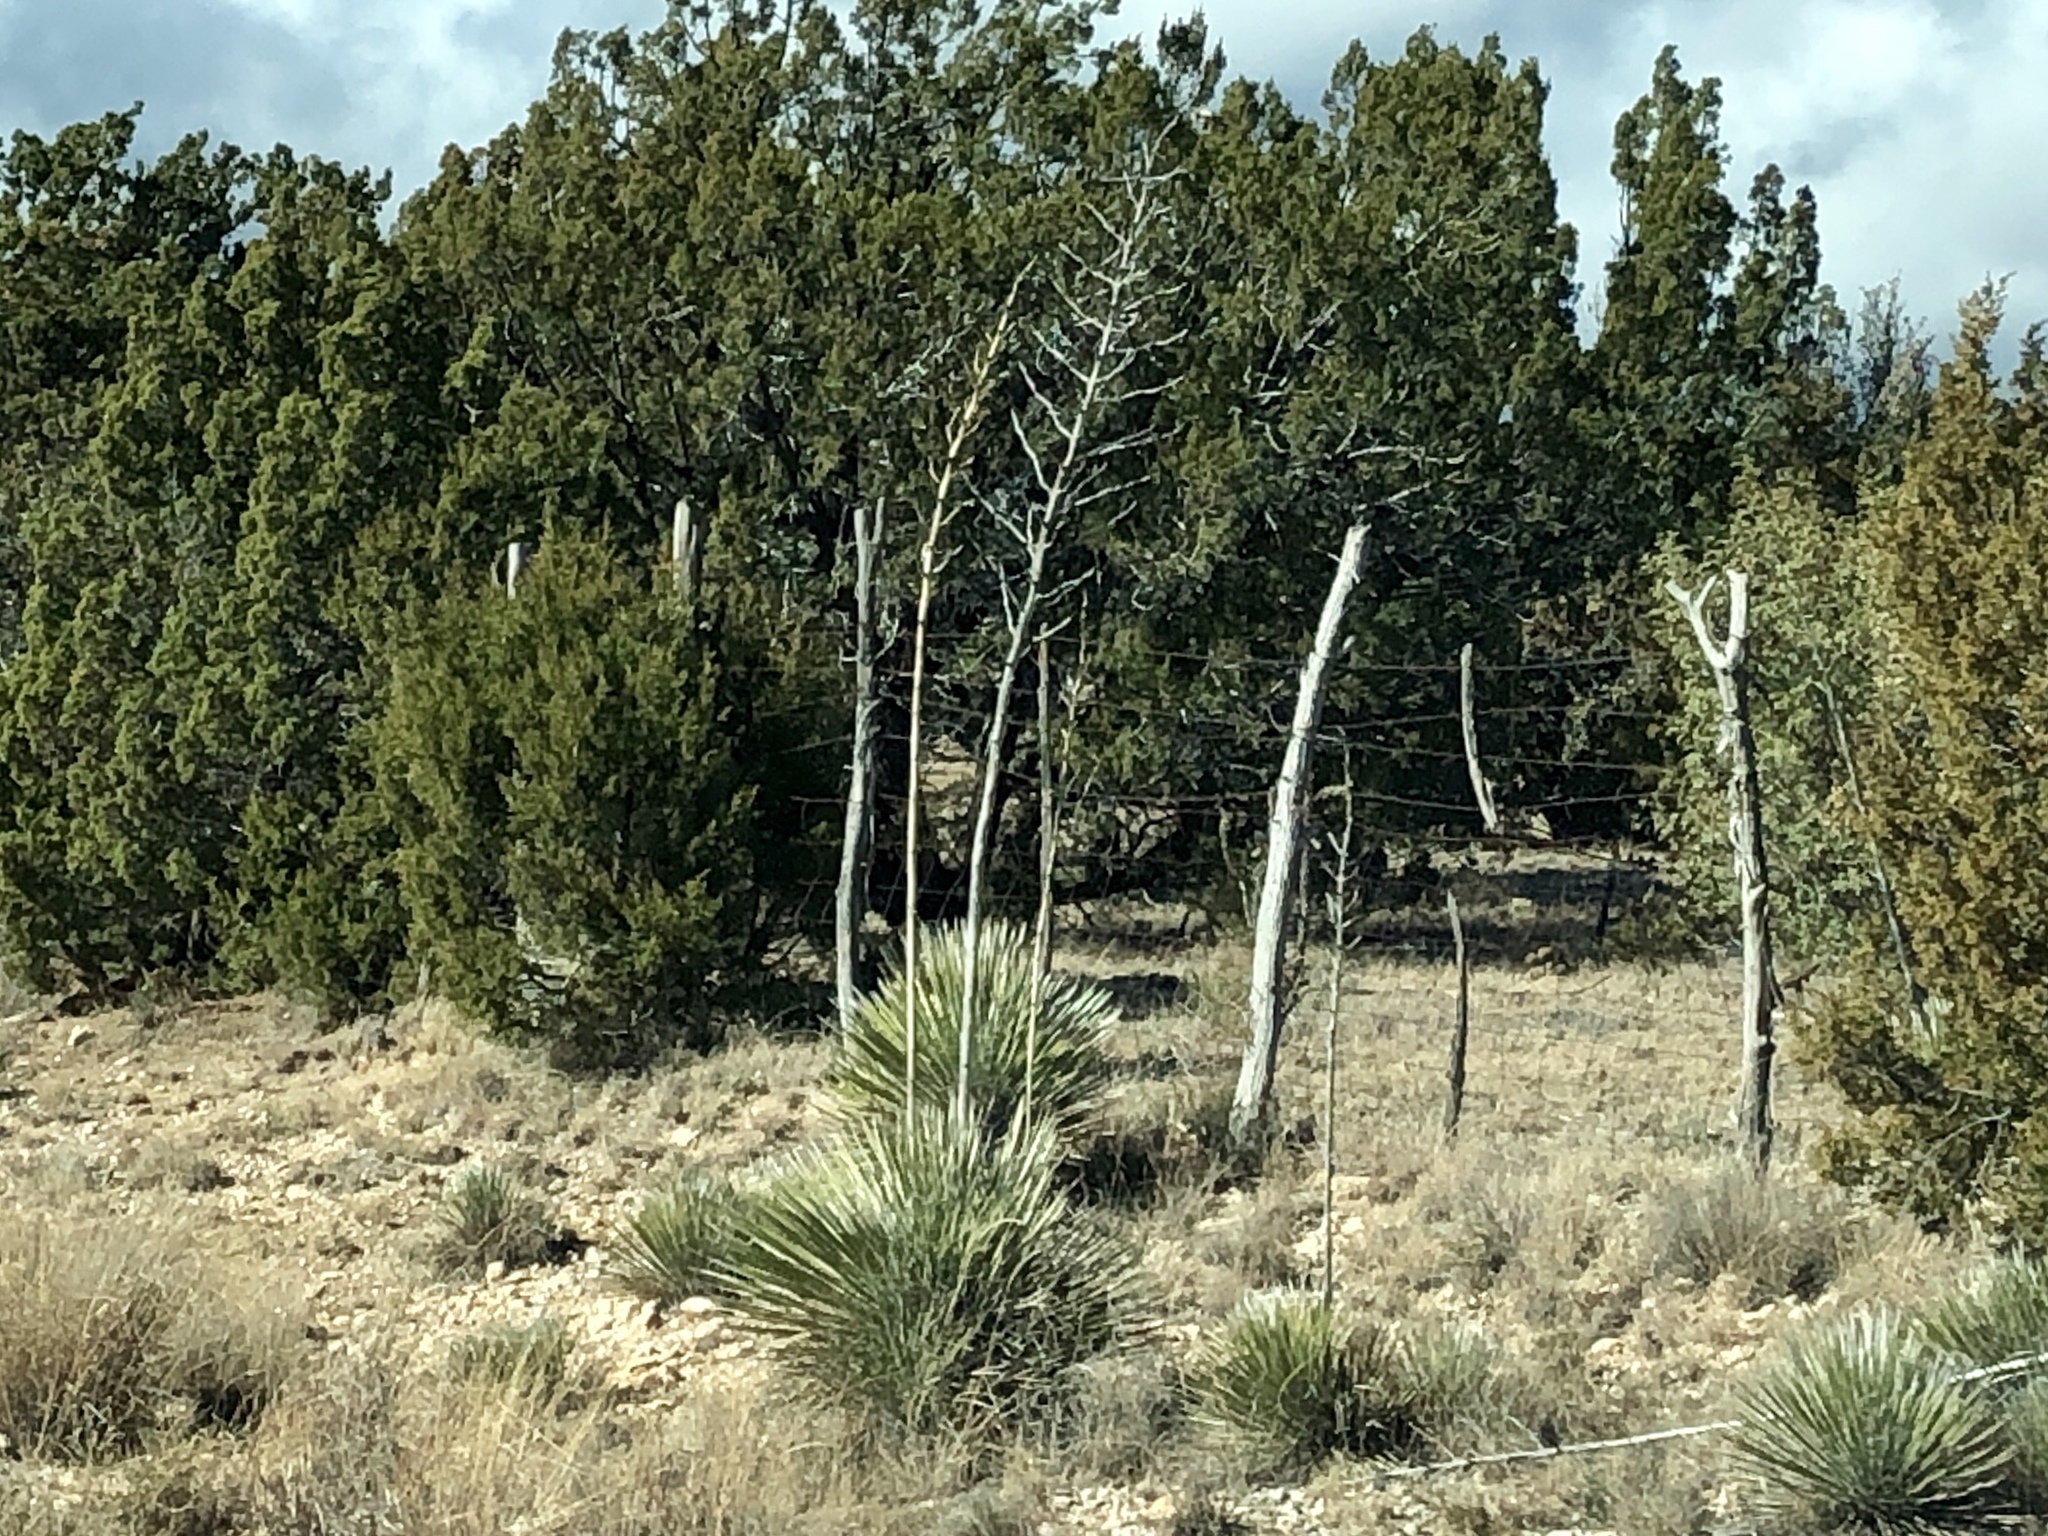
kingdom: Plantae
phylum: Tracheophyta
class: Liliopsida
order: Asparagales
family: Asparagaceae
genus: Yucca
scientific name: Yucca elata
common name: Palmella
